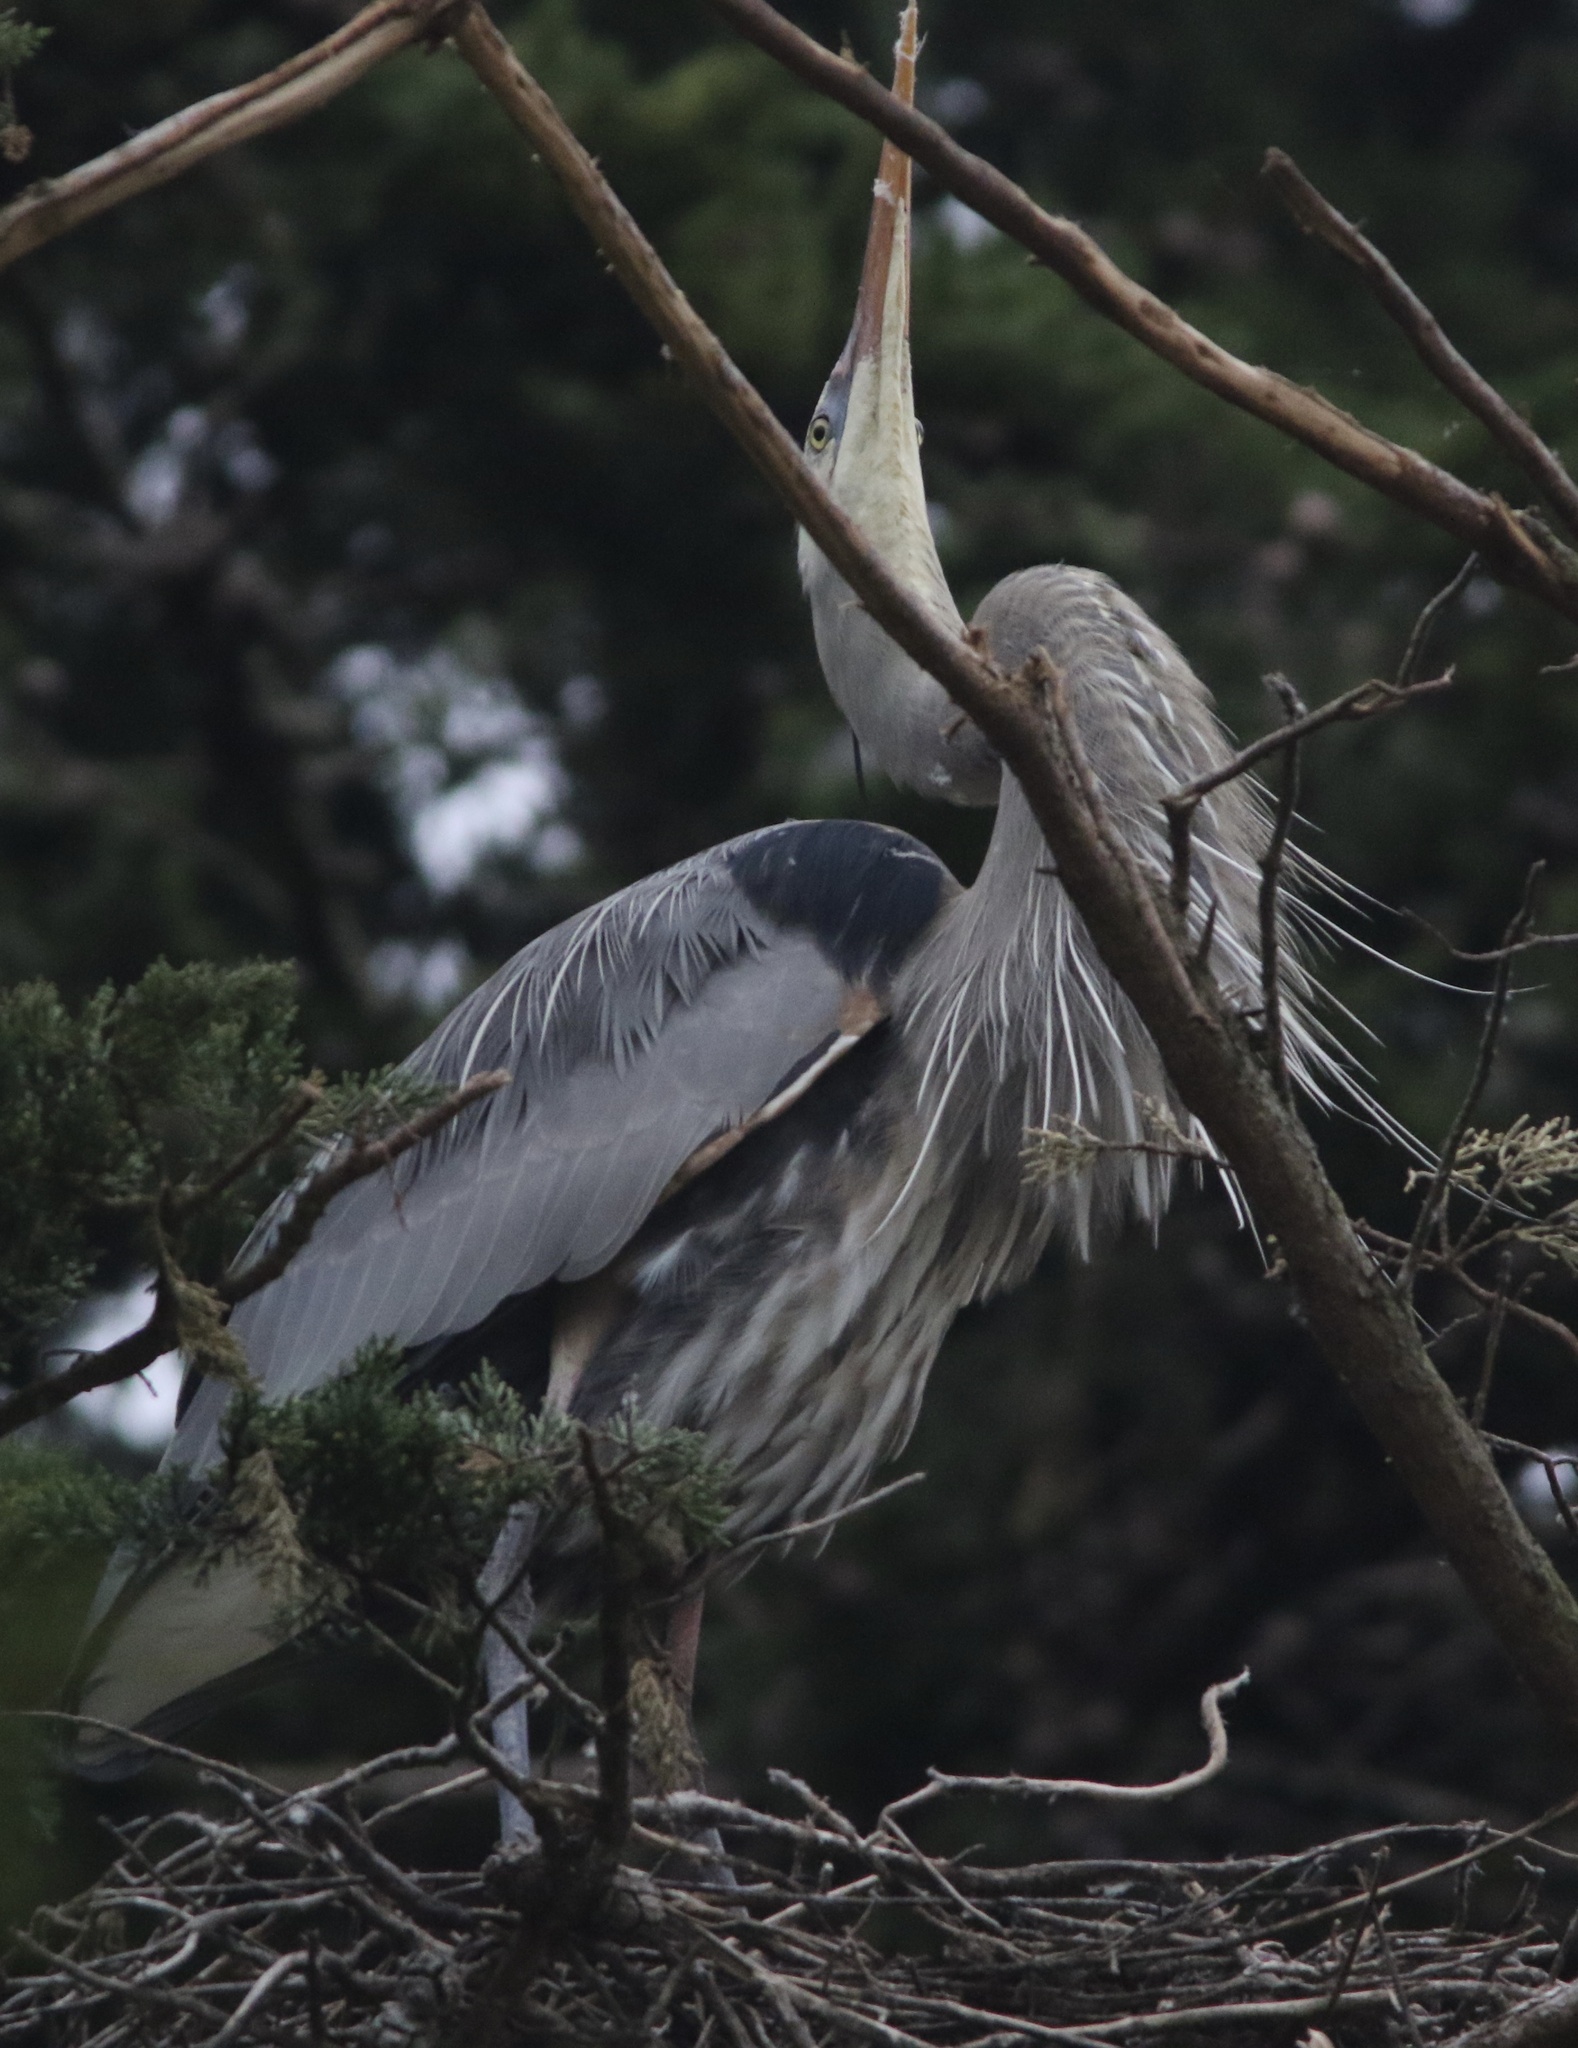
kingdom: Animalia
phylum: Chordata
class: Aves
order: Pelecaniformes
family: Ardeidae
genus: Ardea
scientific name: Ardea herodias
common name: Great blue heron
